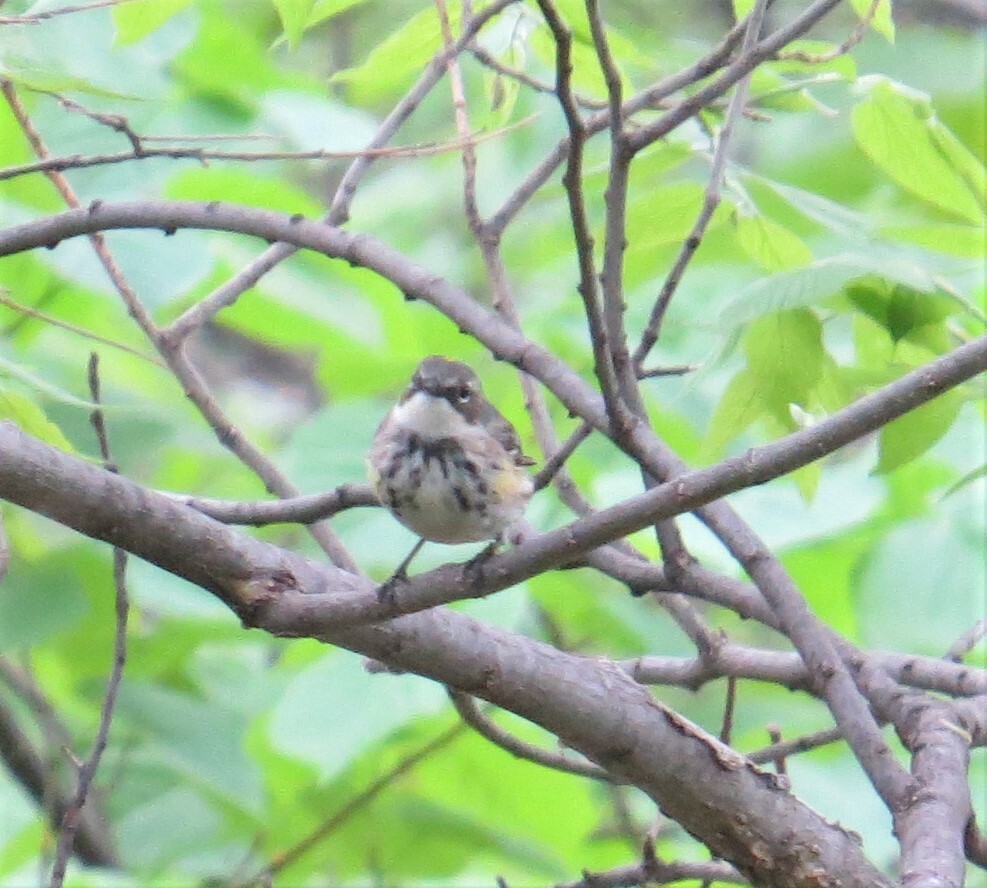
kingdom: Animalia
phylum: Chordata
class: Aves
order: Passeriformes
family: Parulidae
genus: Setophaga
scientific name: Setophaga coronata
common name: Myrtle warbler
